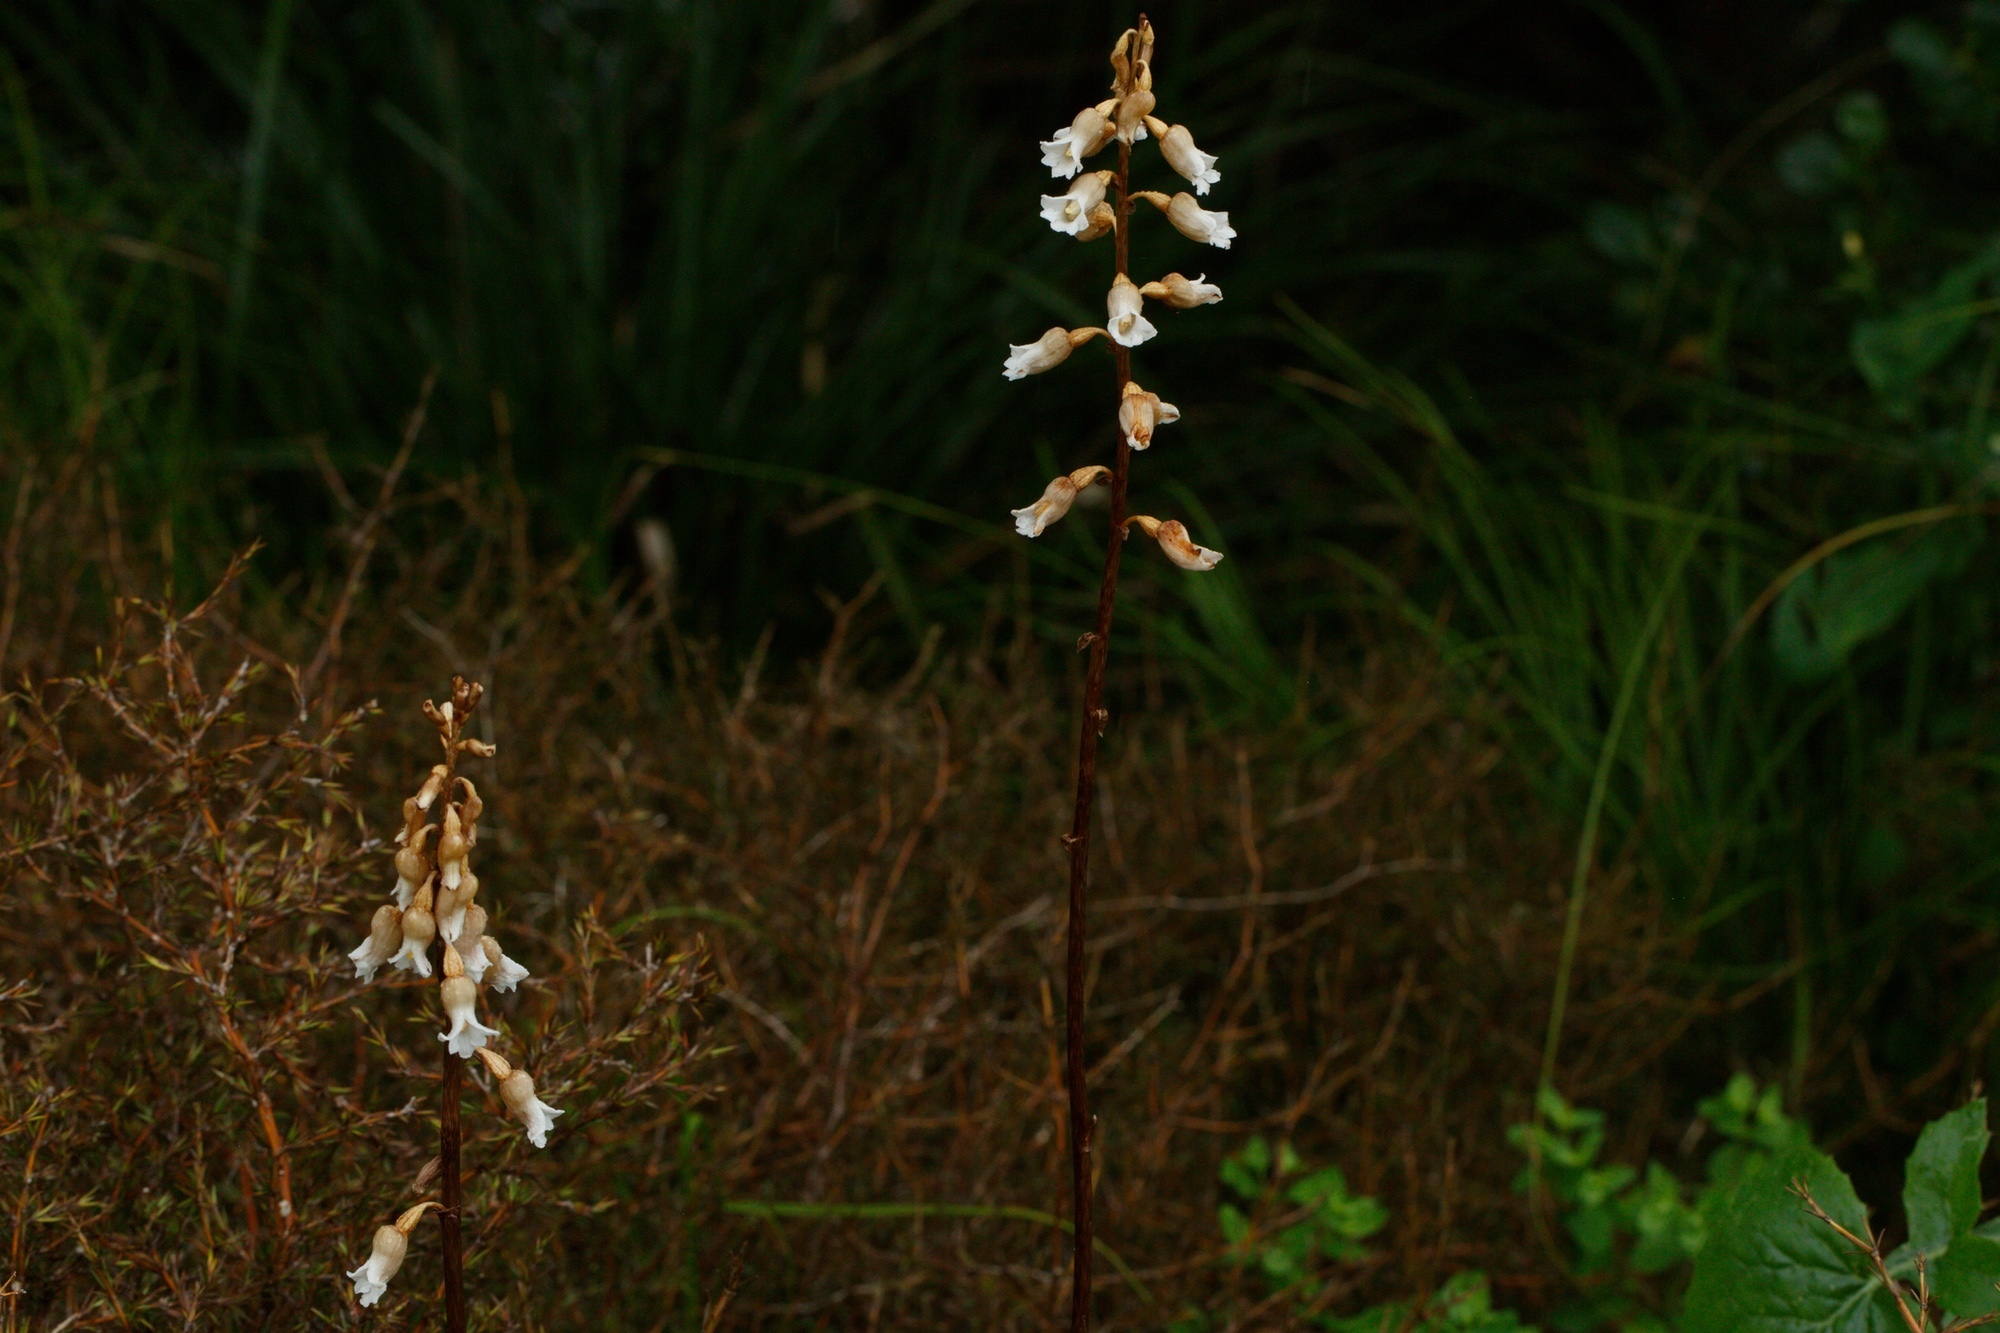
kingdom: Plantae
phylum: Tracheophyta
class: Liliopsida
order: Asparagales
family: Orchidaceae
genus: Gastrodia
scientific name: Gastrodia sesamoides
